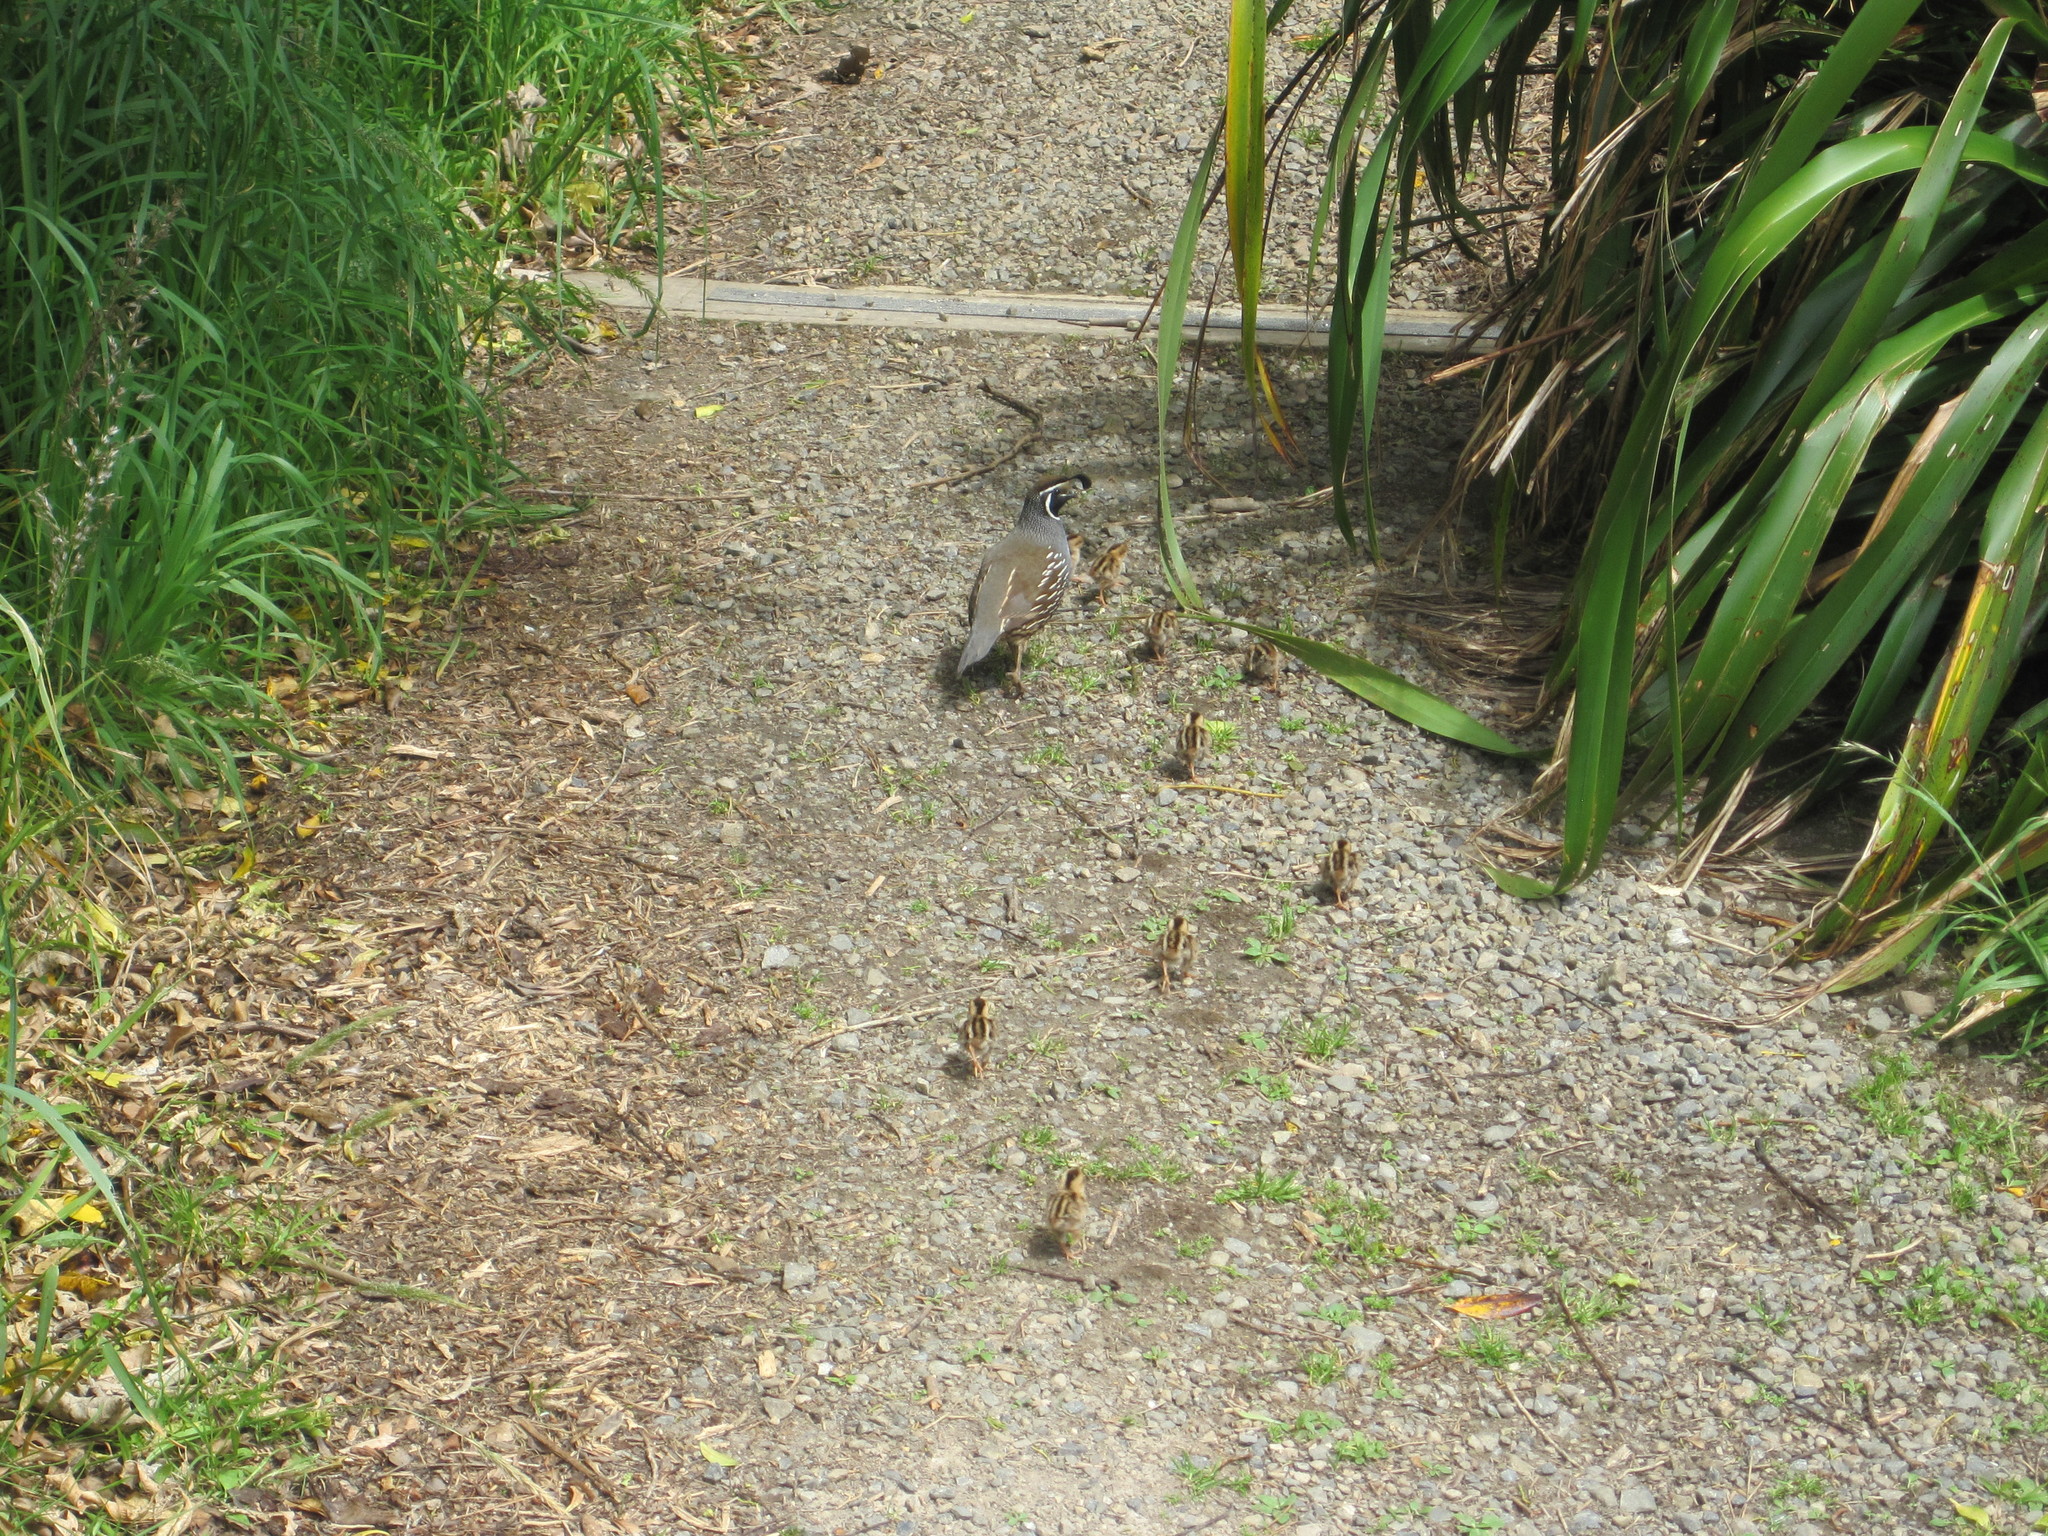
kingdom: Animalia
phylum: Chordata
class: Aves
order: Galliformes
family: Odontophoridae
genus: Callipepla
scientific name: Callipepla californica
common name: California quail
